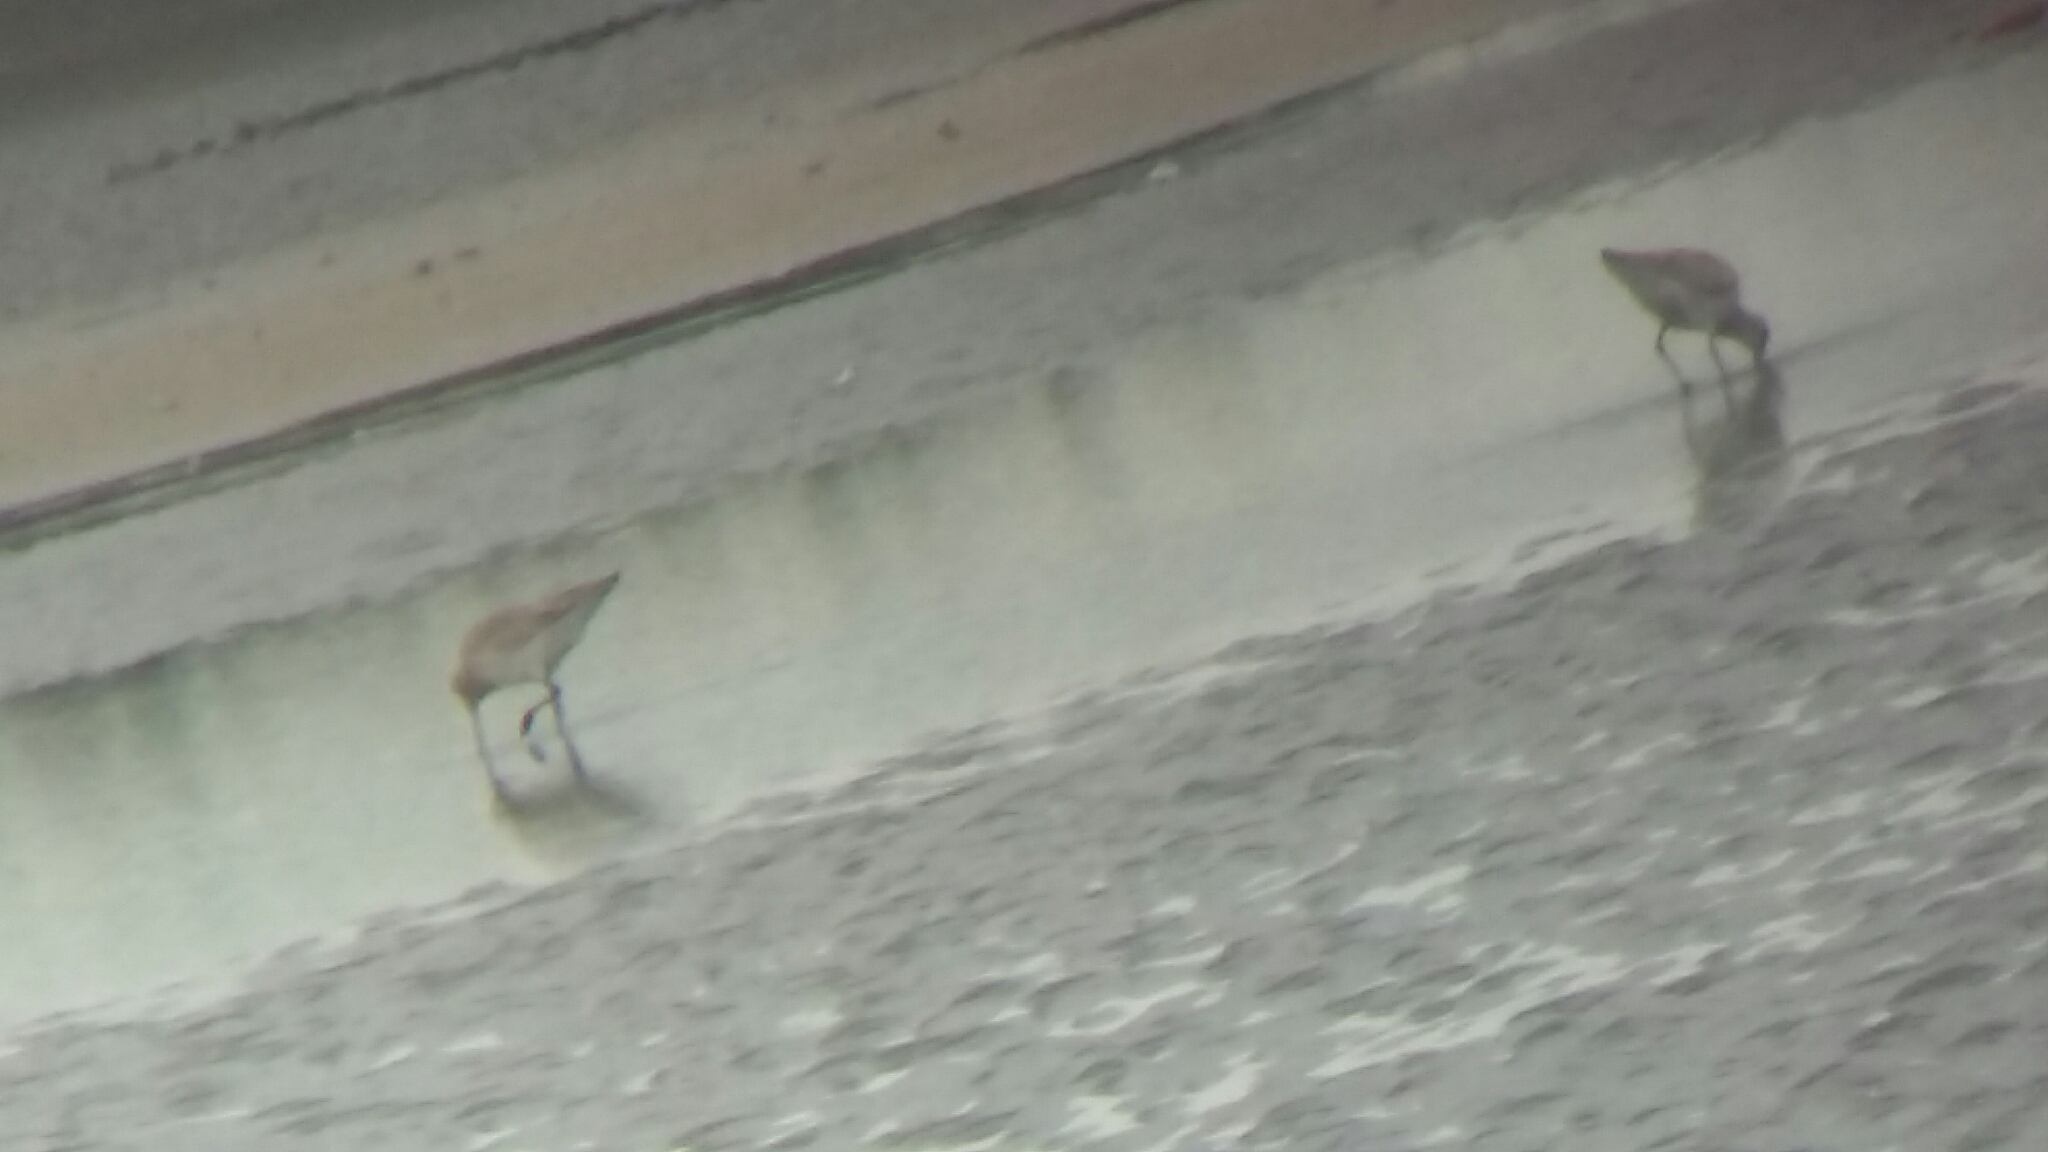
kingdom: Animalia
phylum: Chordata
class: Aves
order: Charadriiformes
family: Scolopacidae
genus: Limosa
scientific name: Limosa lapponica
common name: Bar-tailed godwit
